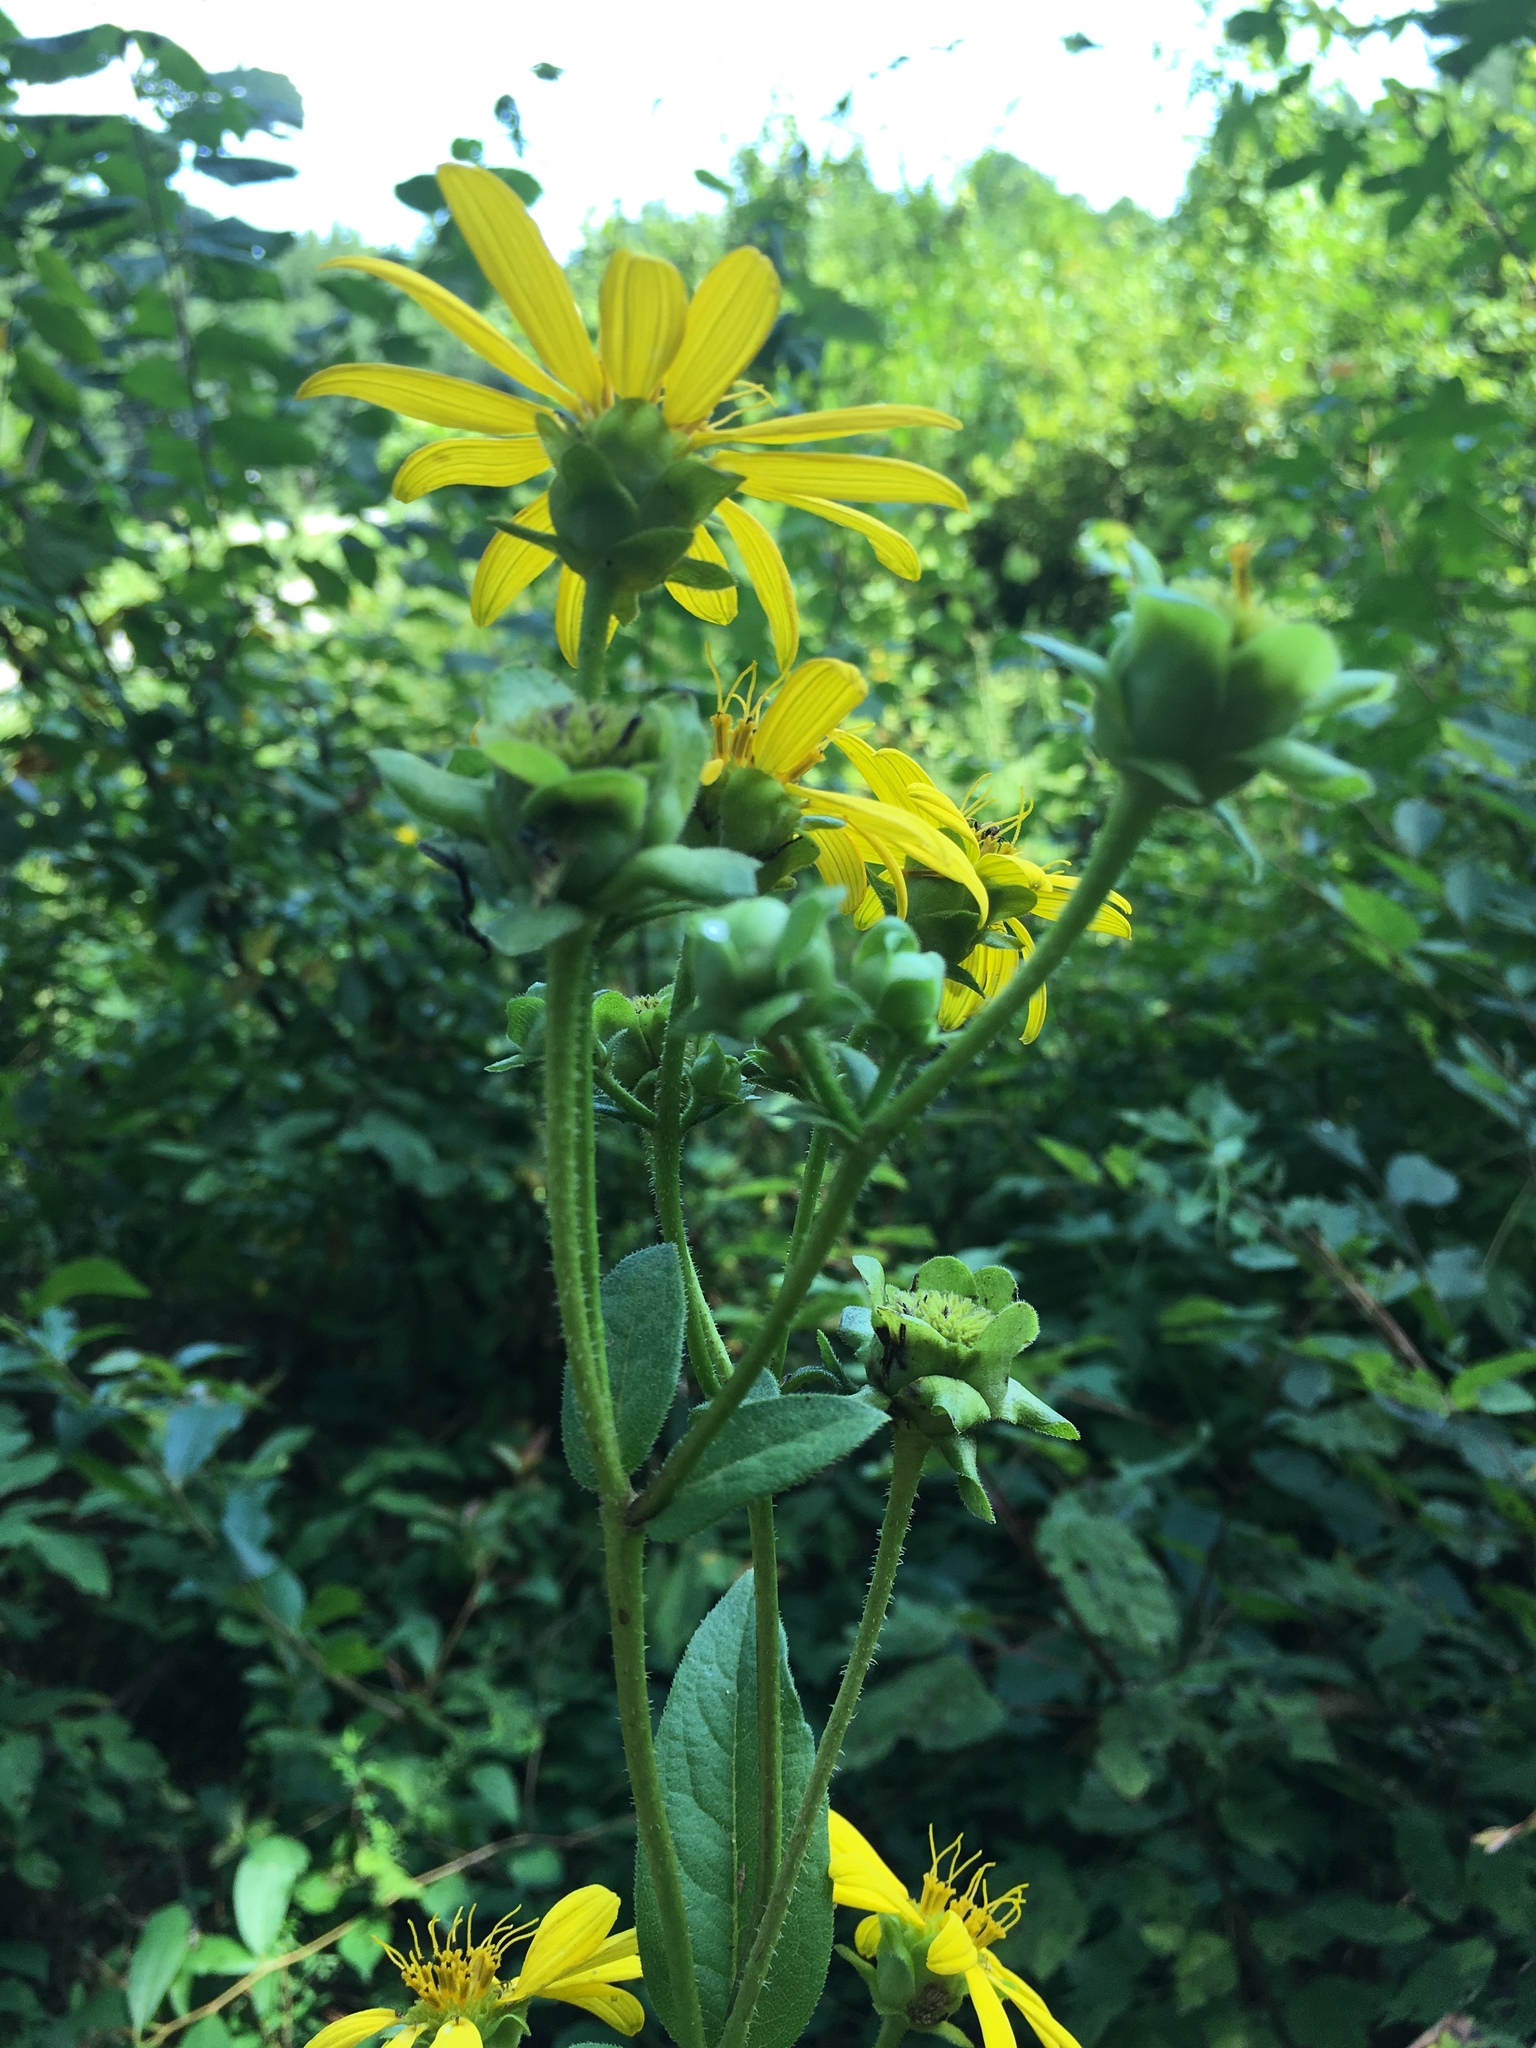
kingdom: Plantae
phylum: Tracheophyta
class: Magnoliopsida
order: Asterales
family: Asteraceae
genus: Silphium
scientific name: Silphium asteriscus
